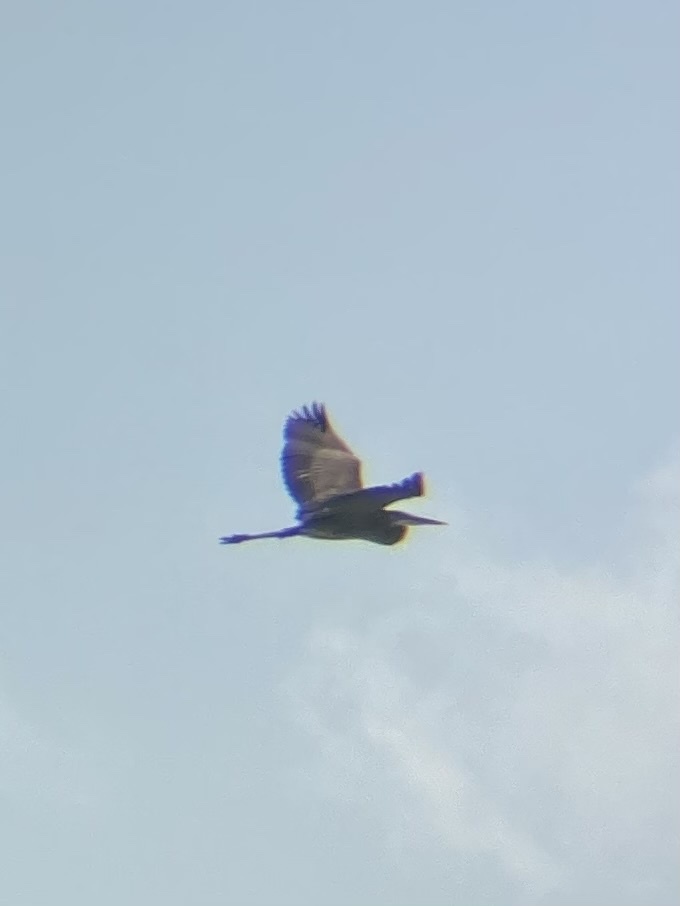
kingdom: Animalia
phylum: Chordata
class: Aves
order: Pelecaniformes
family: Ardeidae
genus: Ardea
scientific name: Ardea herodias
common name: Great blue heron
